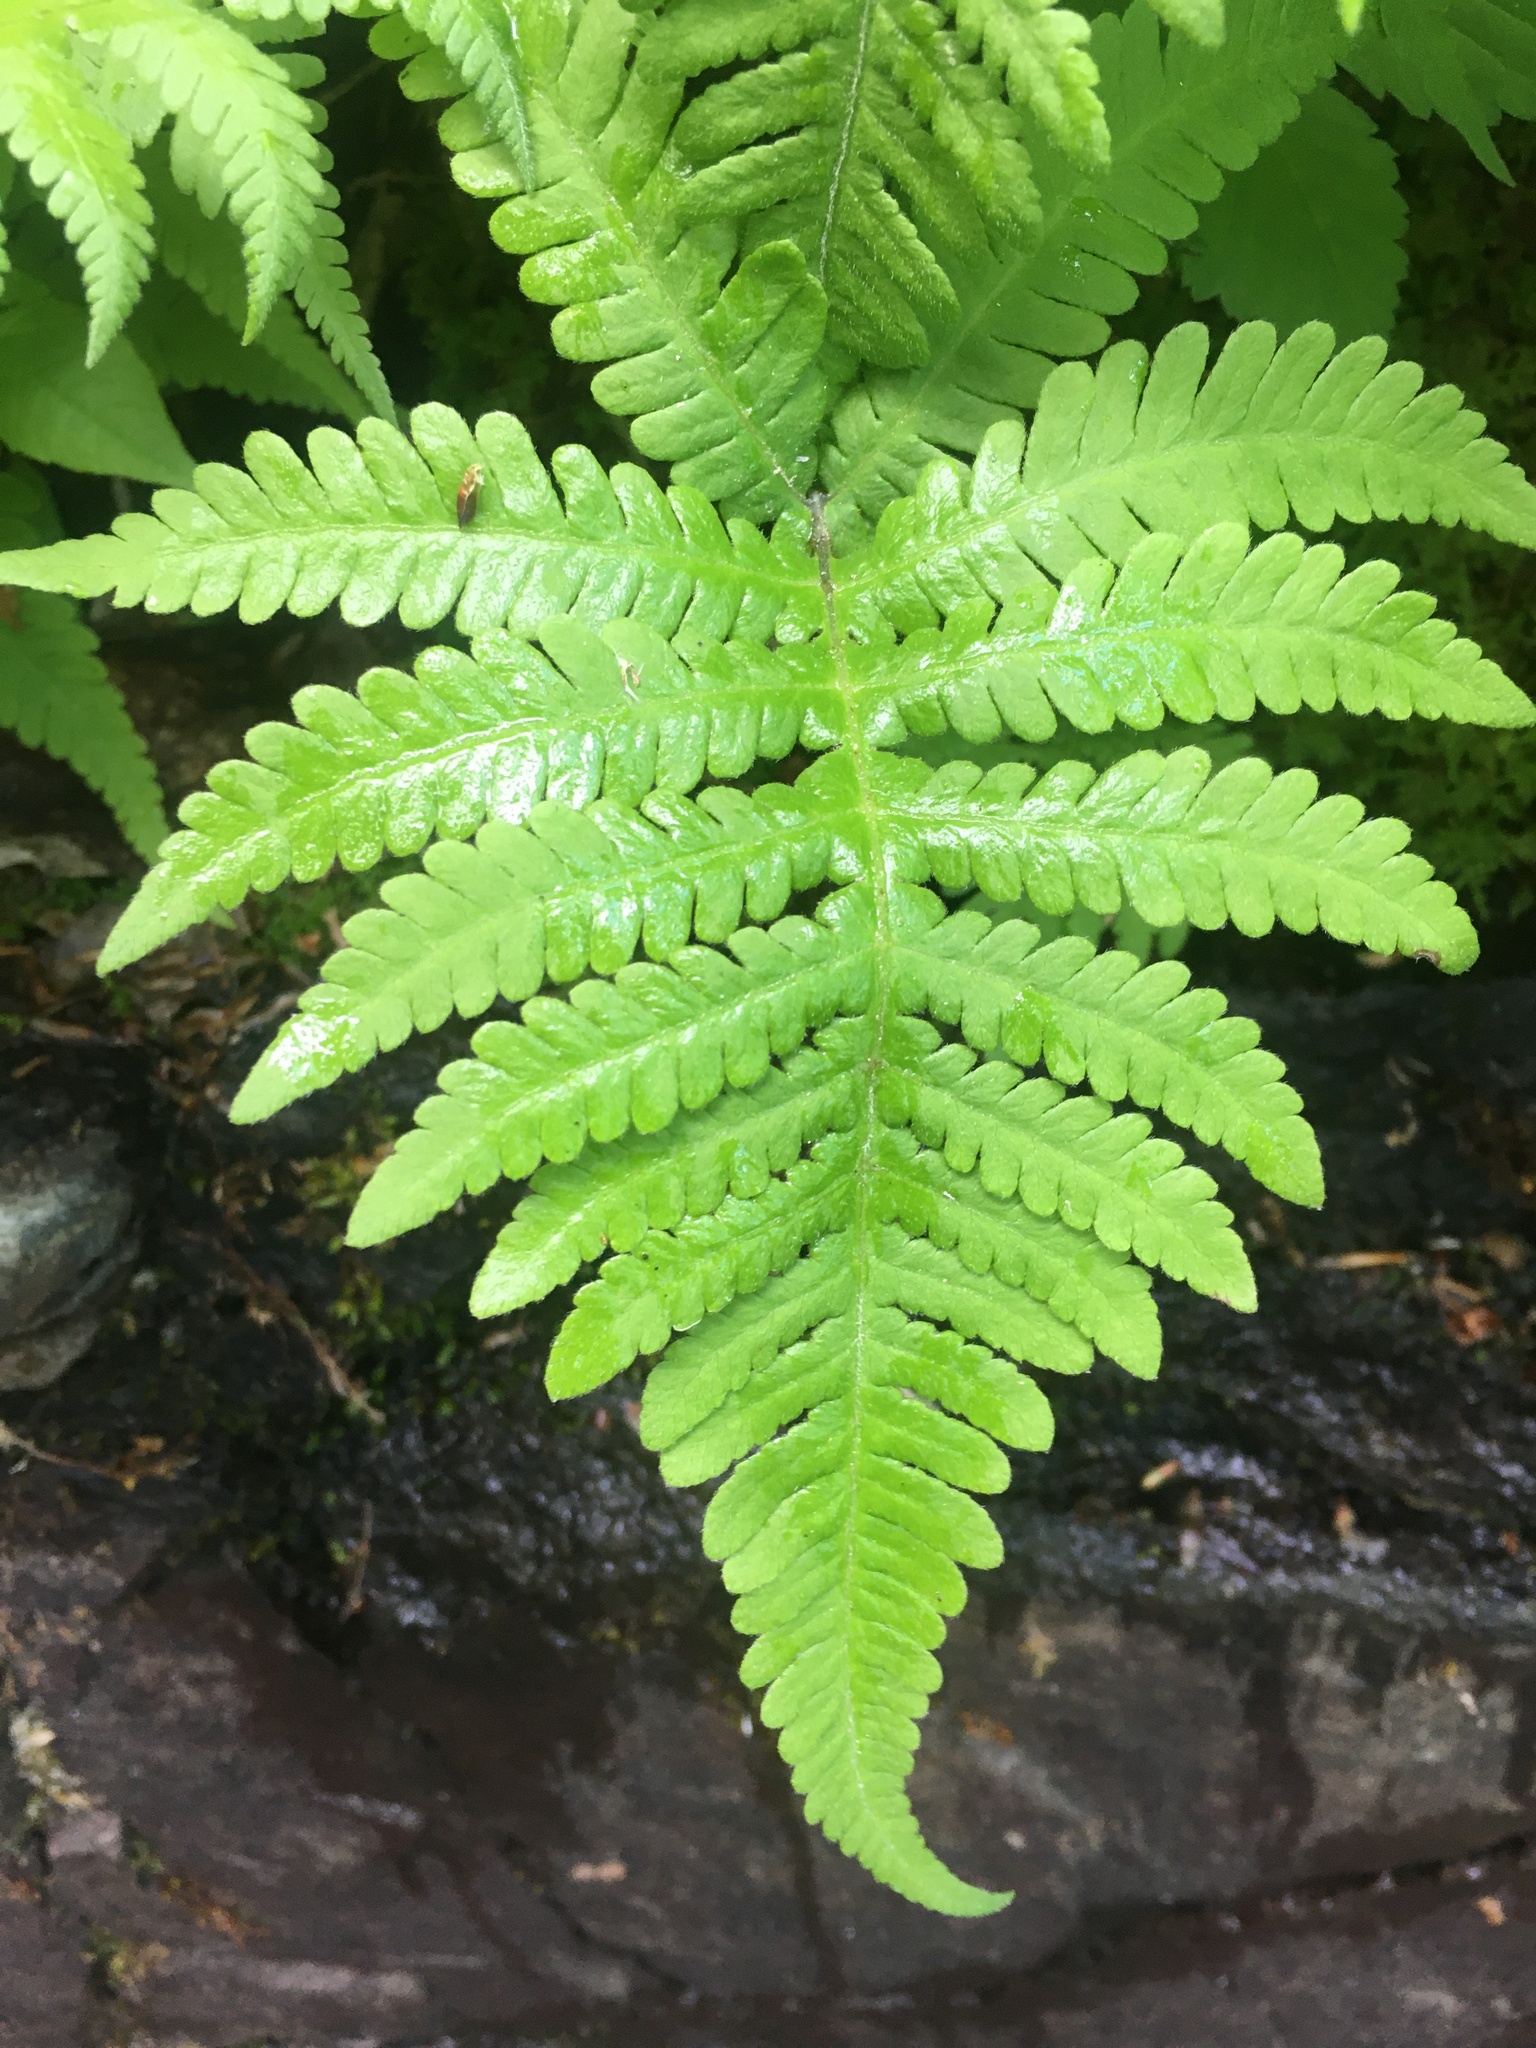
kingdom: Plantae
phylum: Tracheophyta
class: Polypodiopsida
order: Polypodiales
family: Thelypteridaceae
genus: Phegopteris
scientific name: Phegopteris connectilis
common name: Beech fern
